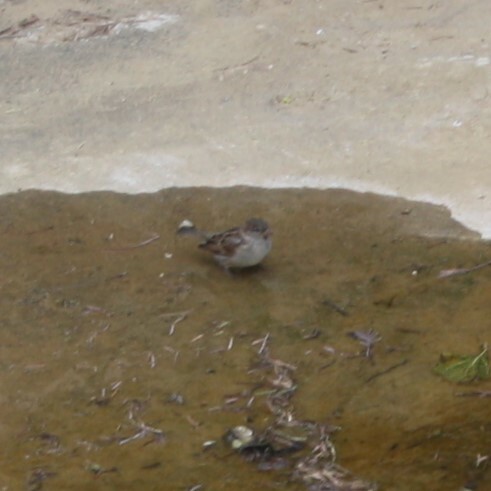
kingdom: Animalia
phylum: Chordata
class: Aves
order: Passeriformes
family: Passeridae
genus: Passer
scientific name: Passer domesticus
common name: House sparrow
